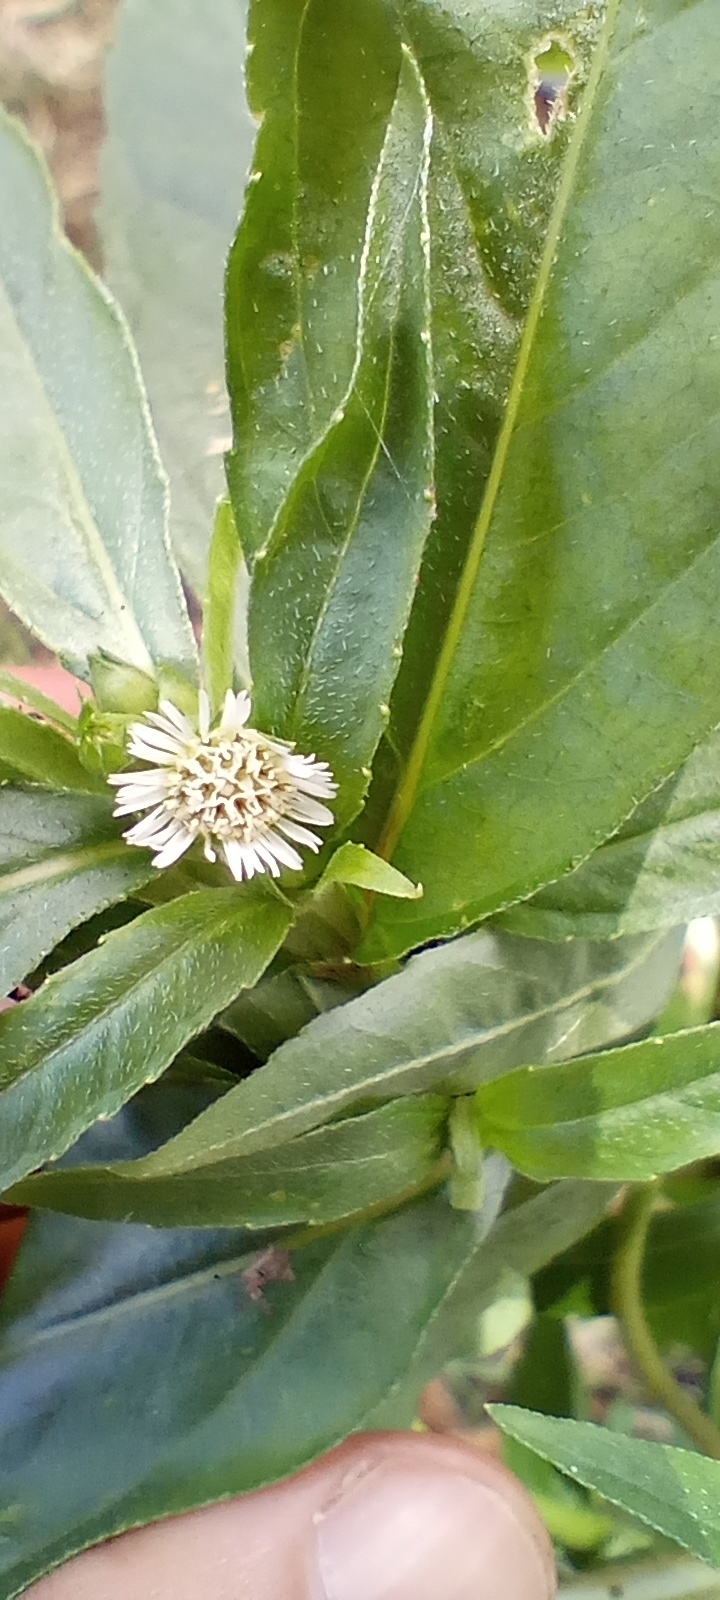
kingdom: Plantae
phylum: Tracheophyta
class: Magnoliopsida
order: Asterales
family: Asteraceae
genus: Eclipta
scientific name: Eclipta prostrata
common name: False daisy
